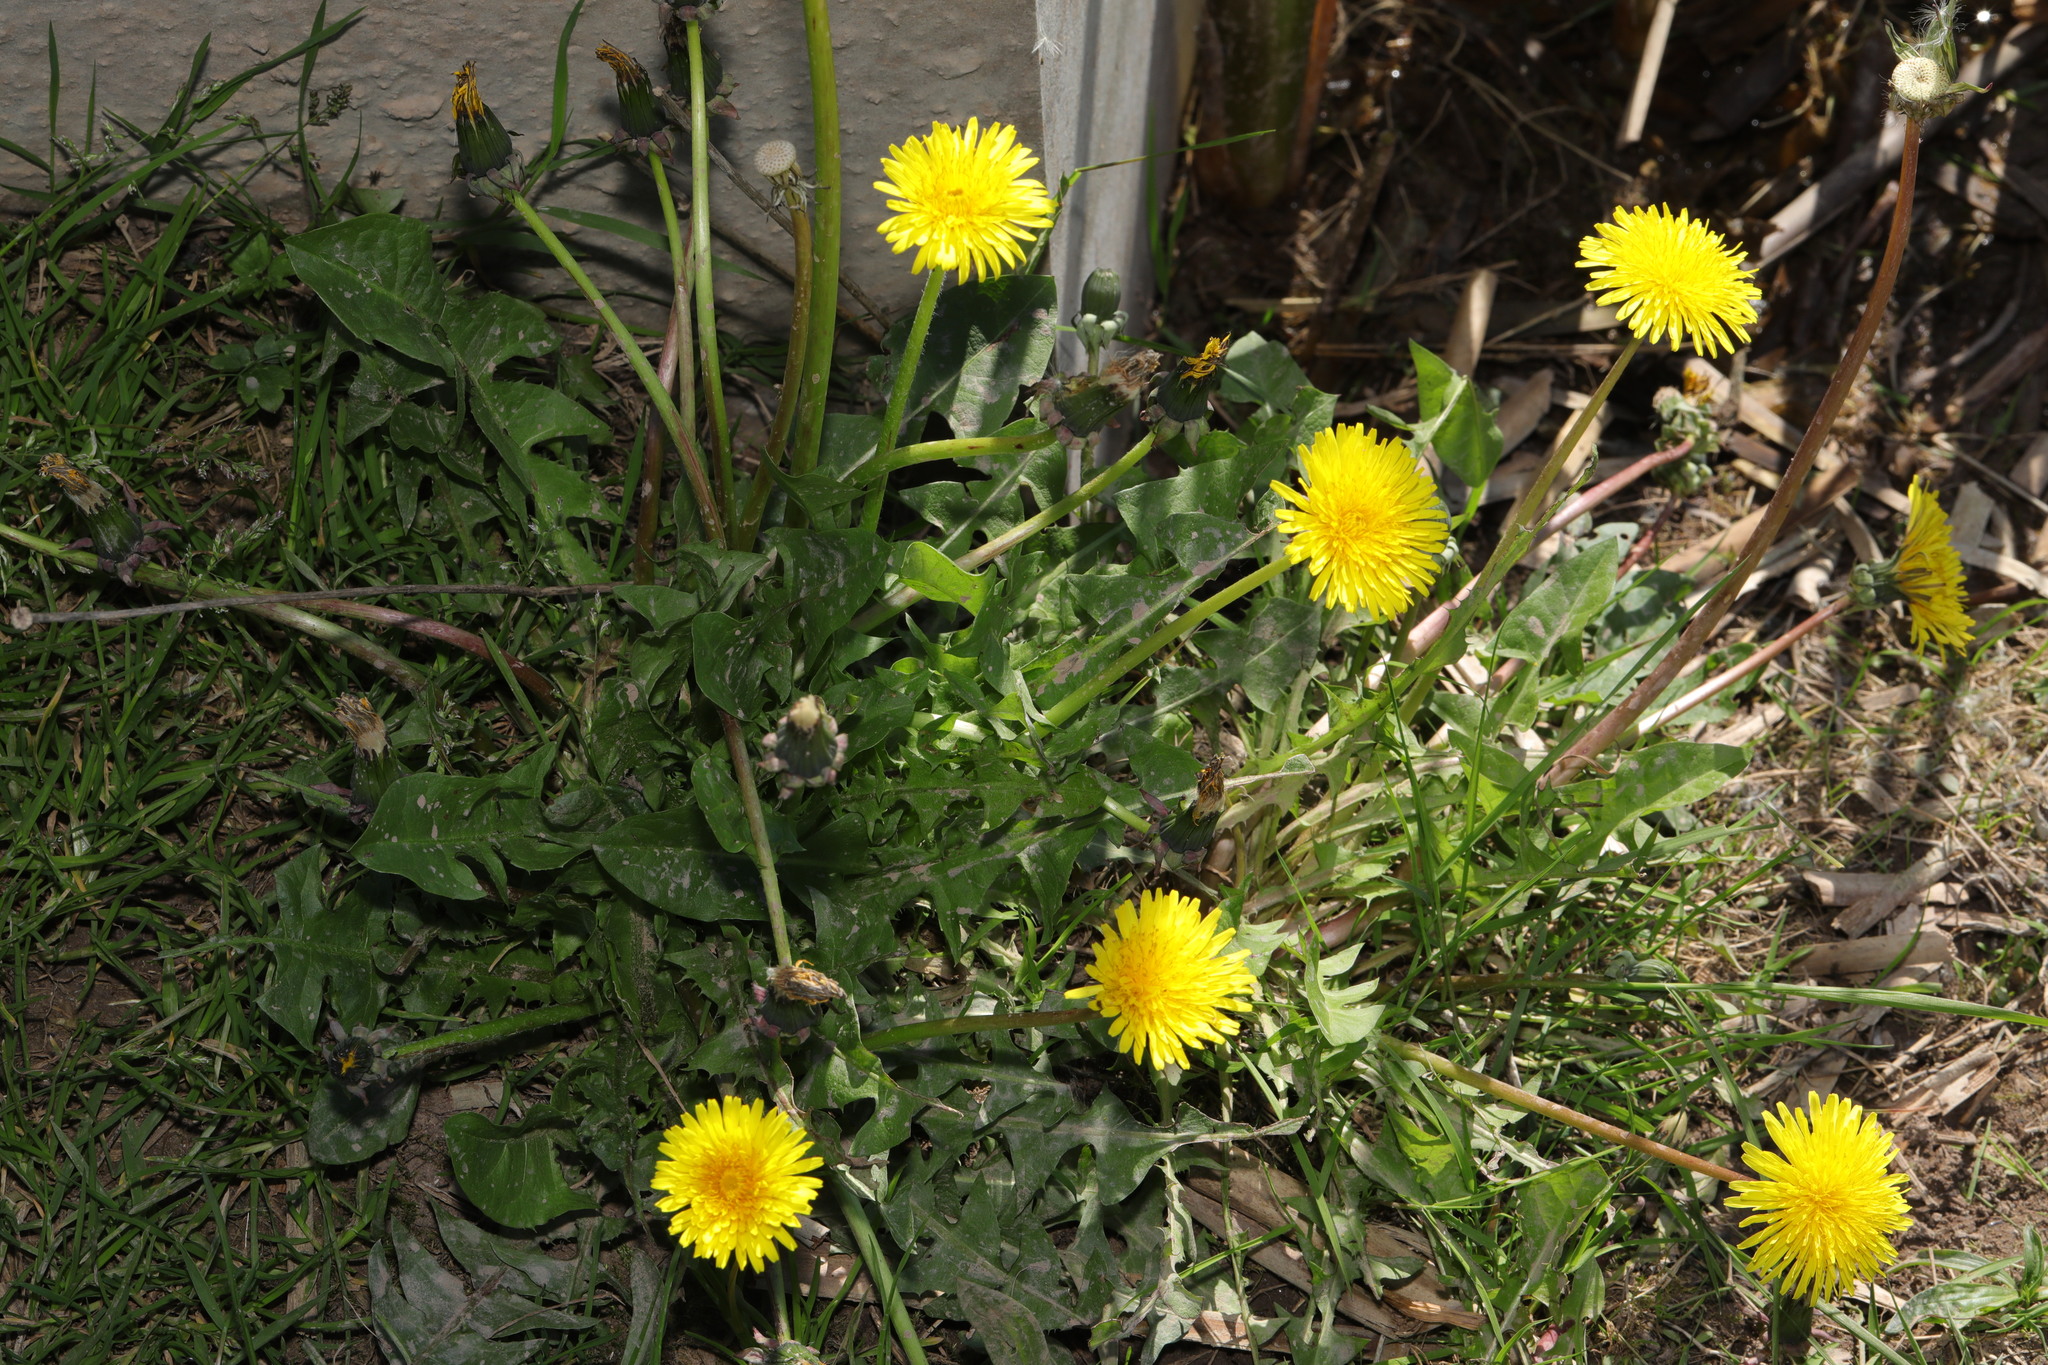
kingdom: Plantae
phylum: Tracheophyta
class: Magnoliopsida
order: Asterales
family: Asteraceae
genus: Taraxacum
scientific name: Taraxacum officinale
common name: Common dandelion
